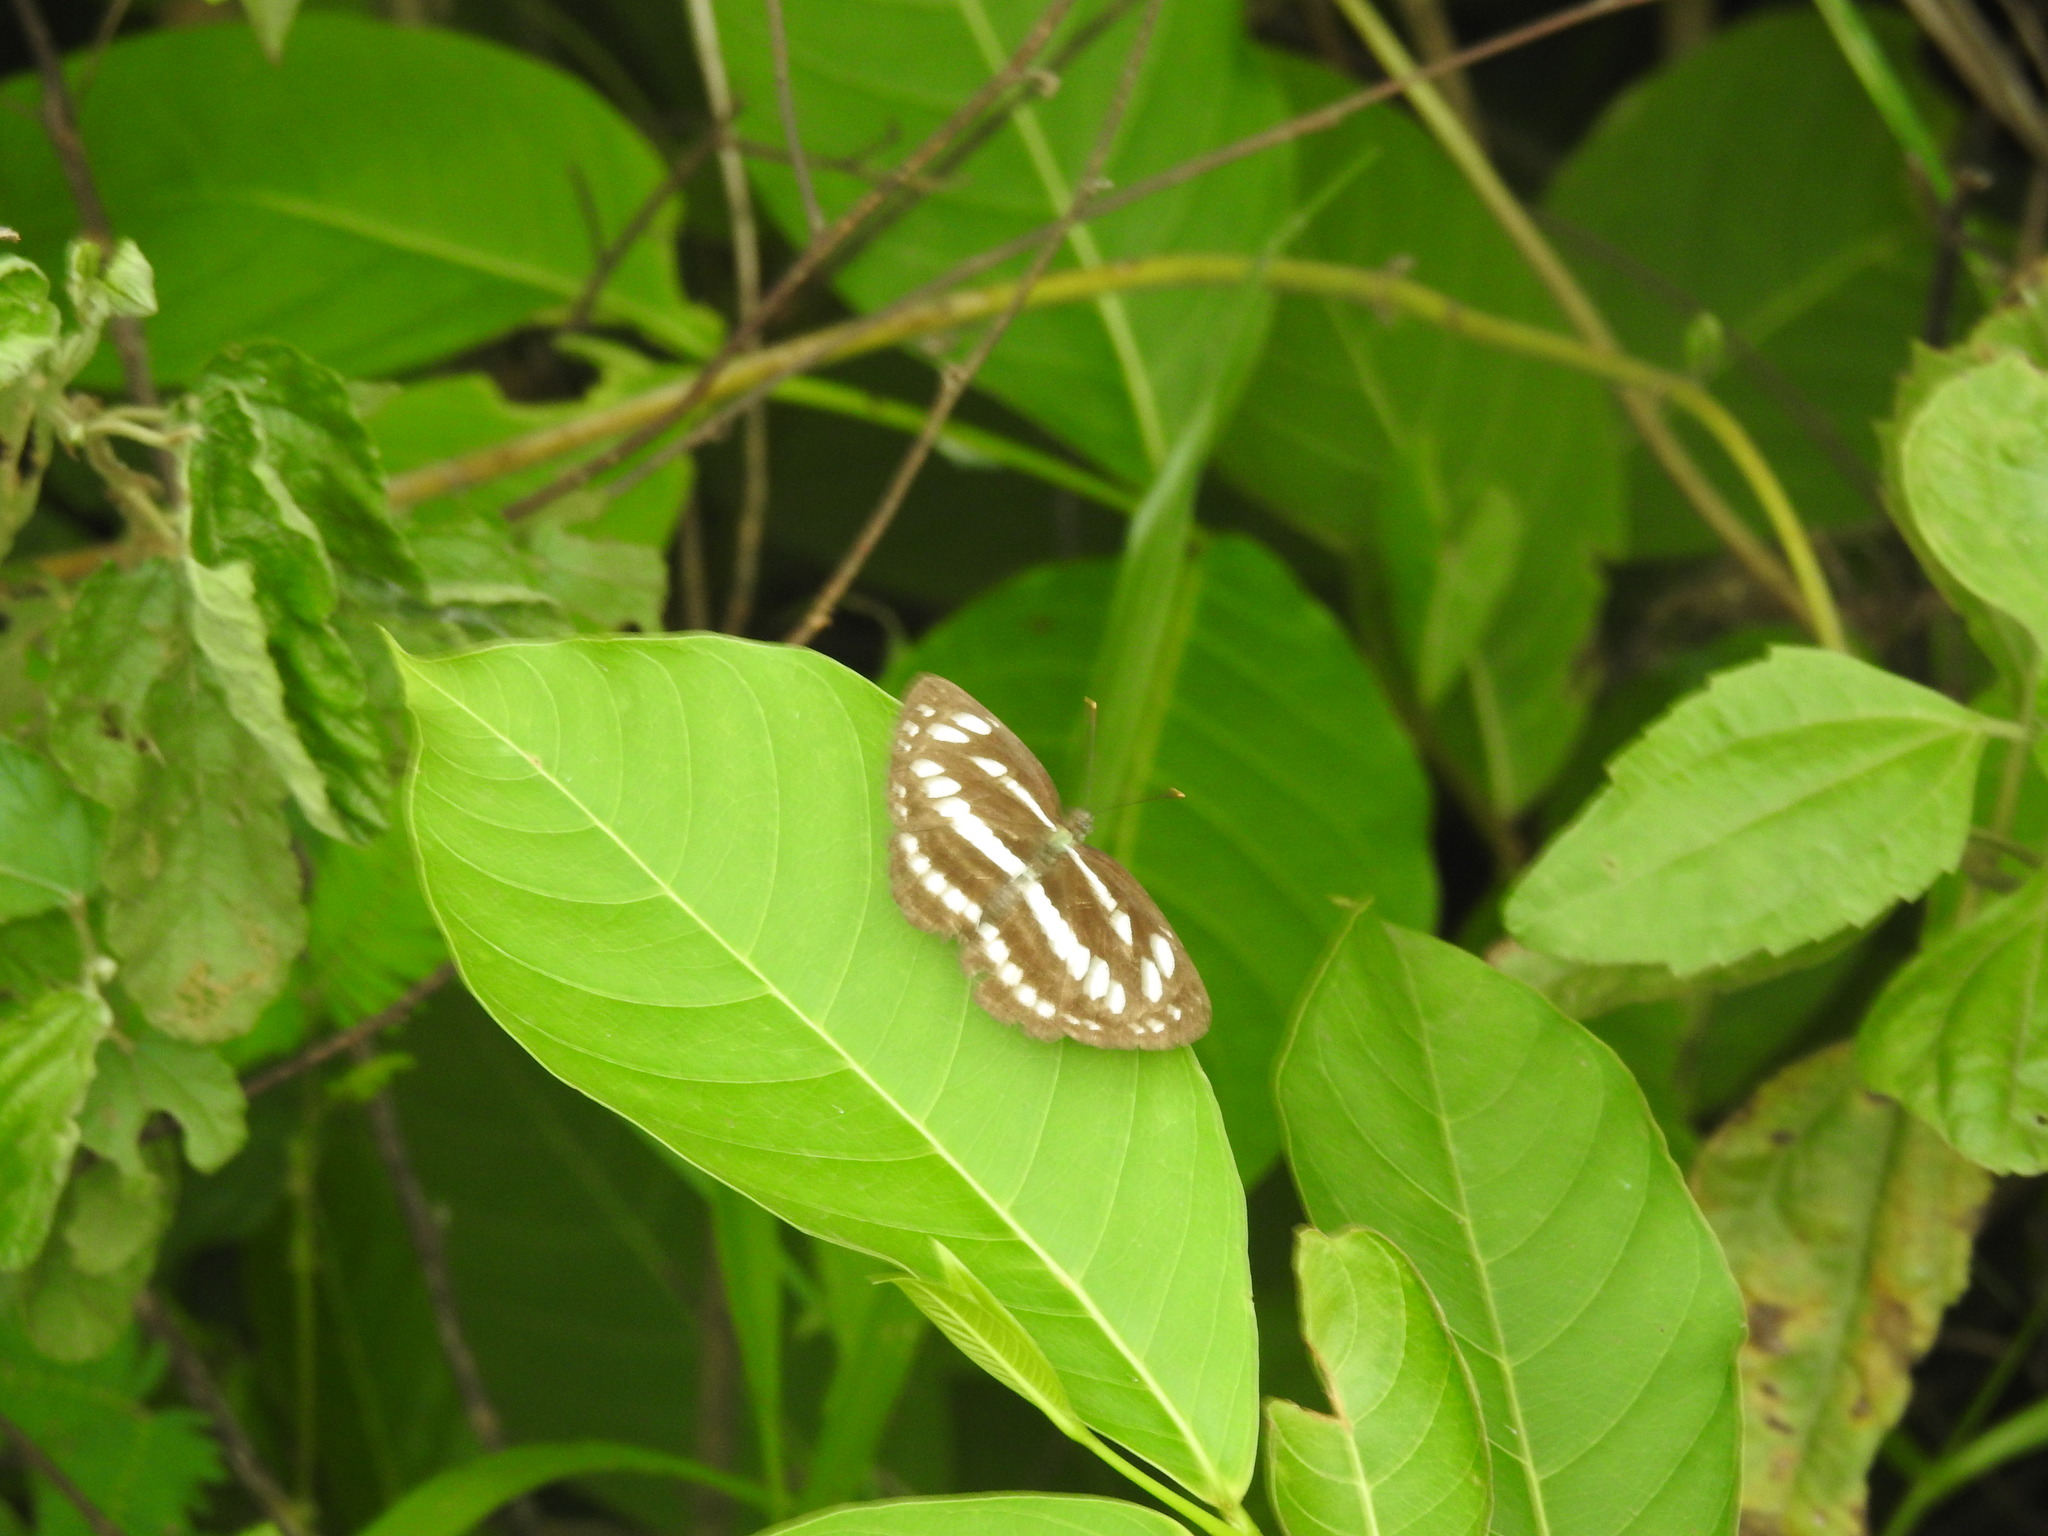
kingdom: Animalia
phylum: Arthropoda
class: Insecta
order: Lepidoptera
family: Nymphalidae
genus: Neptis
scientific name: Neptis hylas
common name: Common sailer
